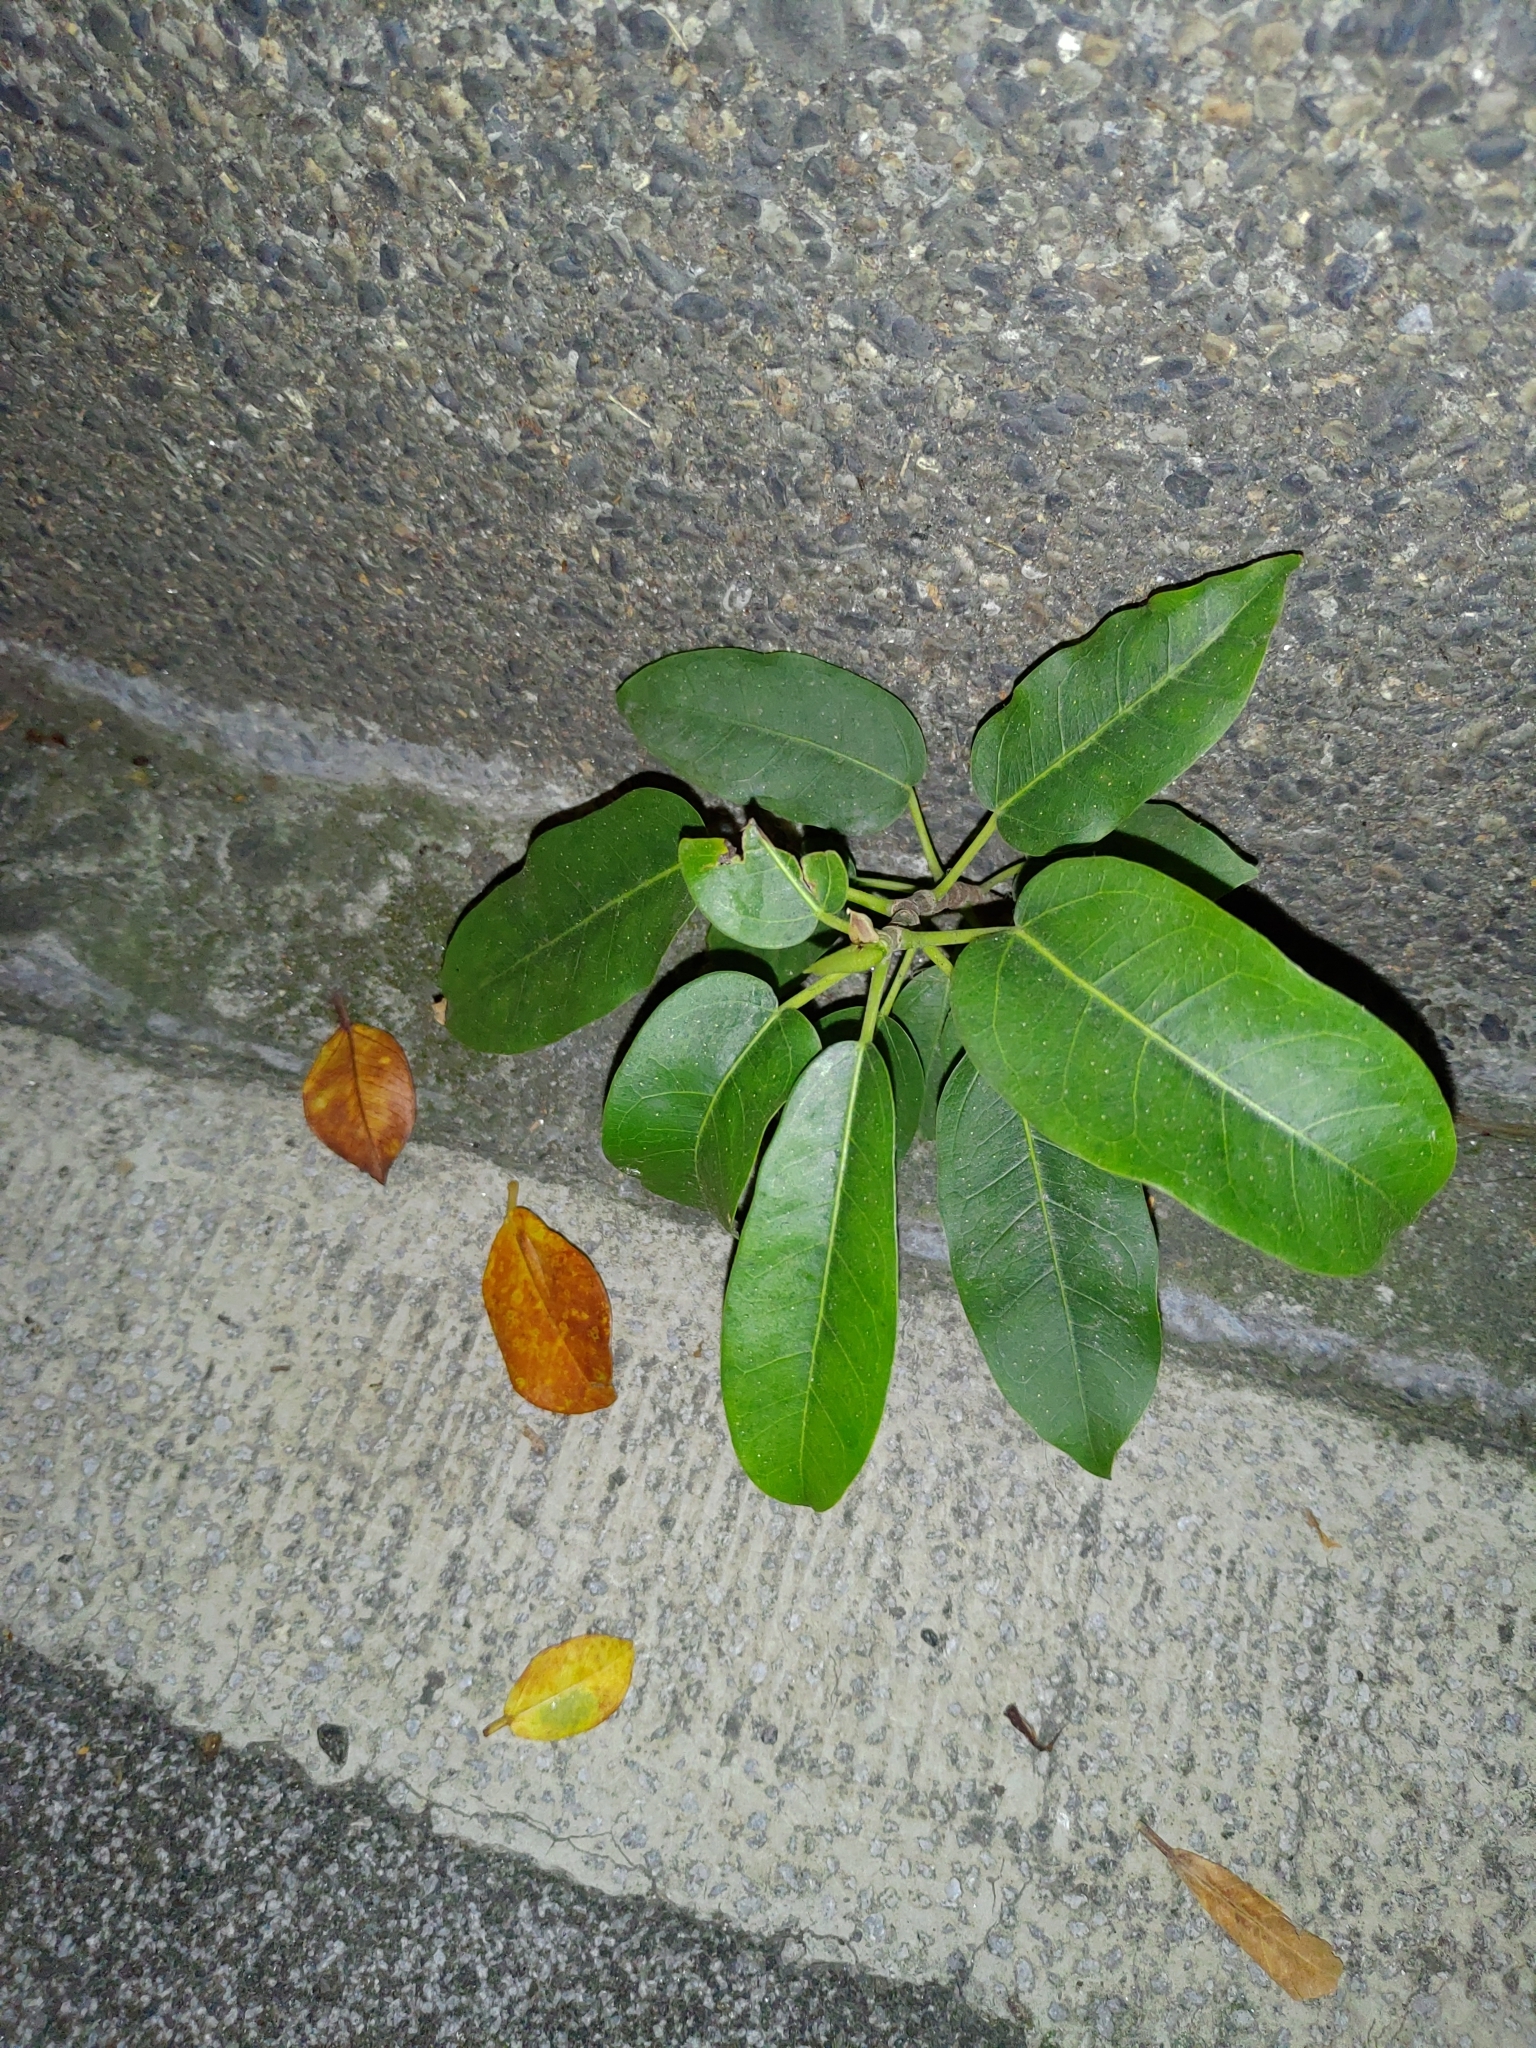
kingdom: Plantae
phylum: Tracheophyta
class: Magnoliopsida
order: Rosales
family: Moraceae
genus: Ficus
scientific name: Ficus subpisocarpa
